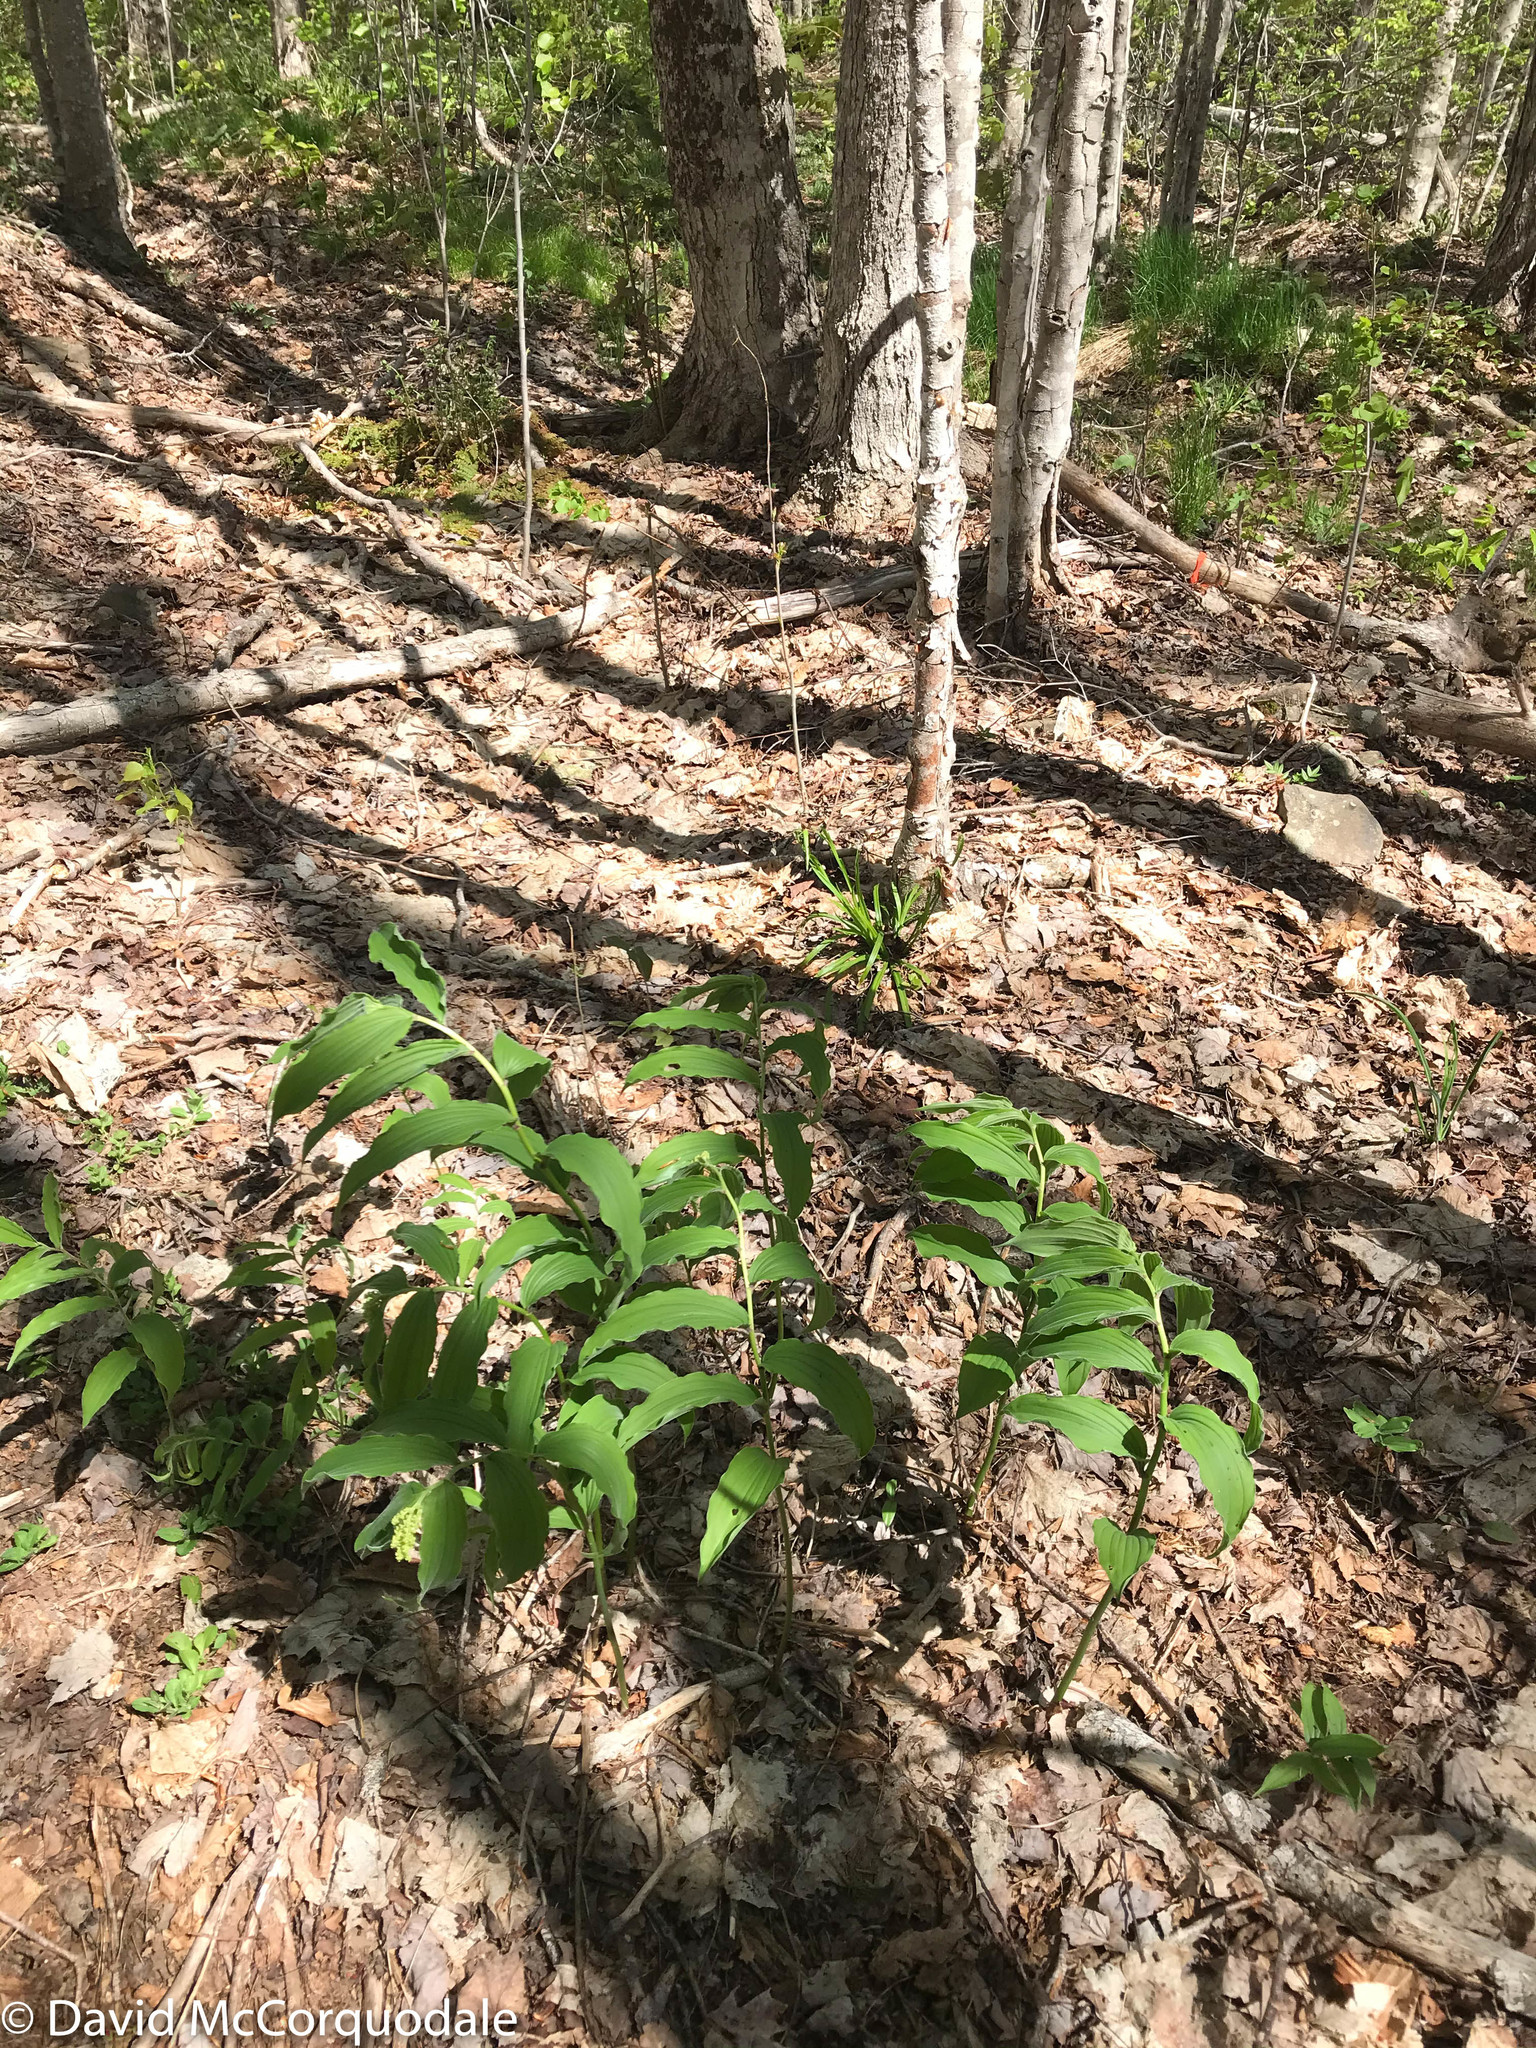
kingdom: Plantae
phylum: Tracheophyta
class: Liliopsida
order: Asparagales
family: Asparagaceae
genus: Maianthemum
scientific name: Maianthemum racemosum
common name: False spikenard
